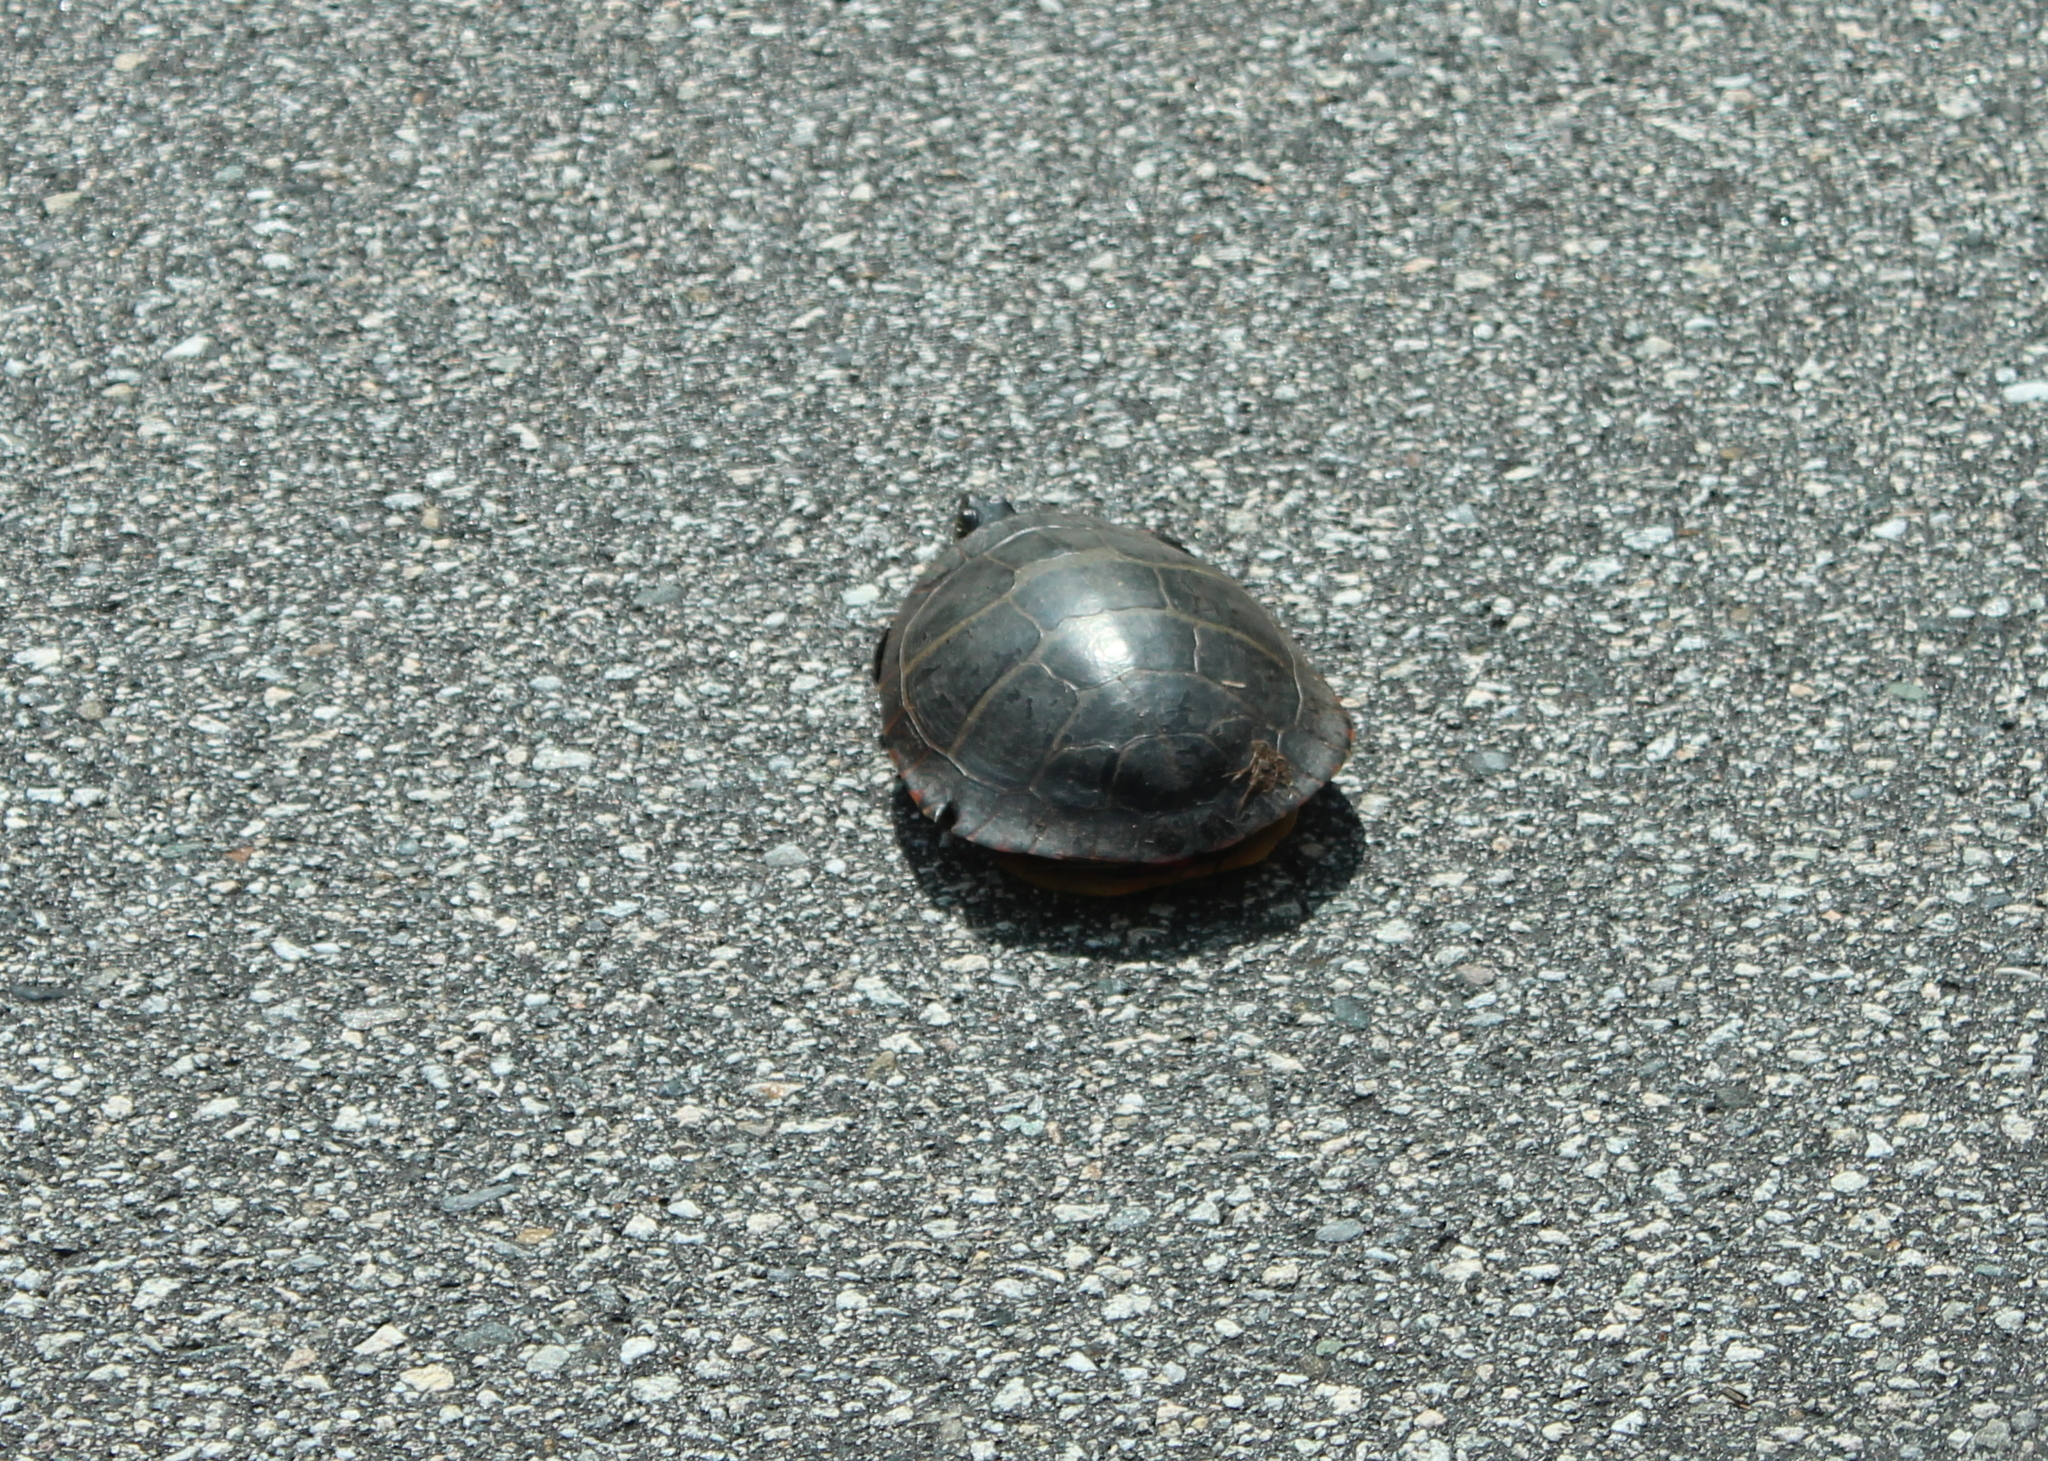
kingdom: Animalia
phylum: Chordata
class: Testudines
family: Emydidae
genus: Chrysemys
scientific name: Chrysemys picta
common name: Painted turtle
